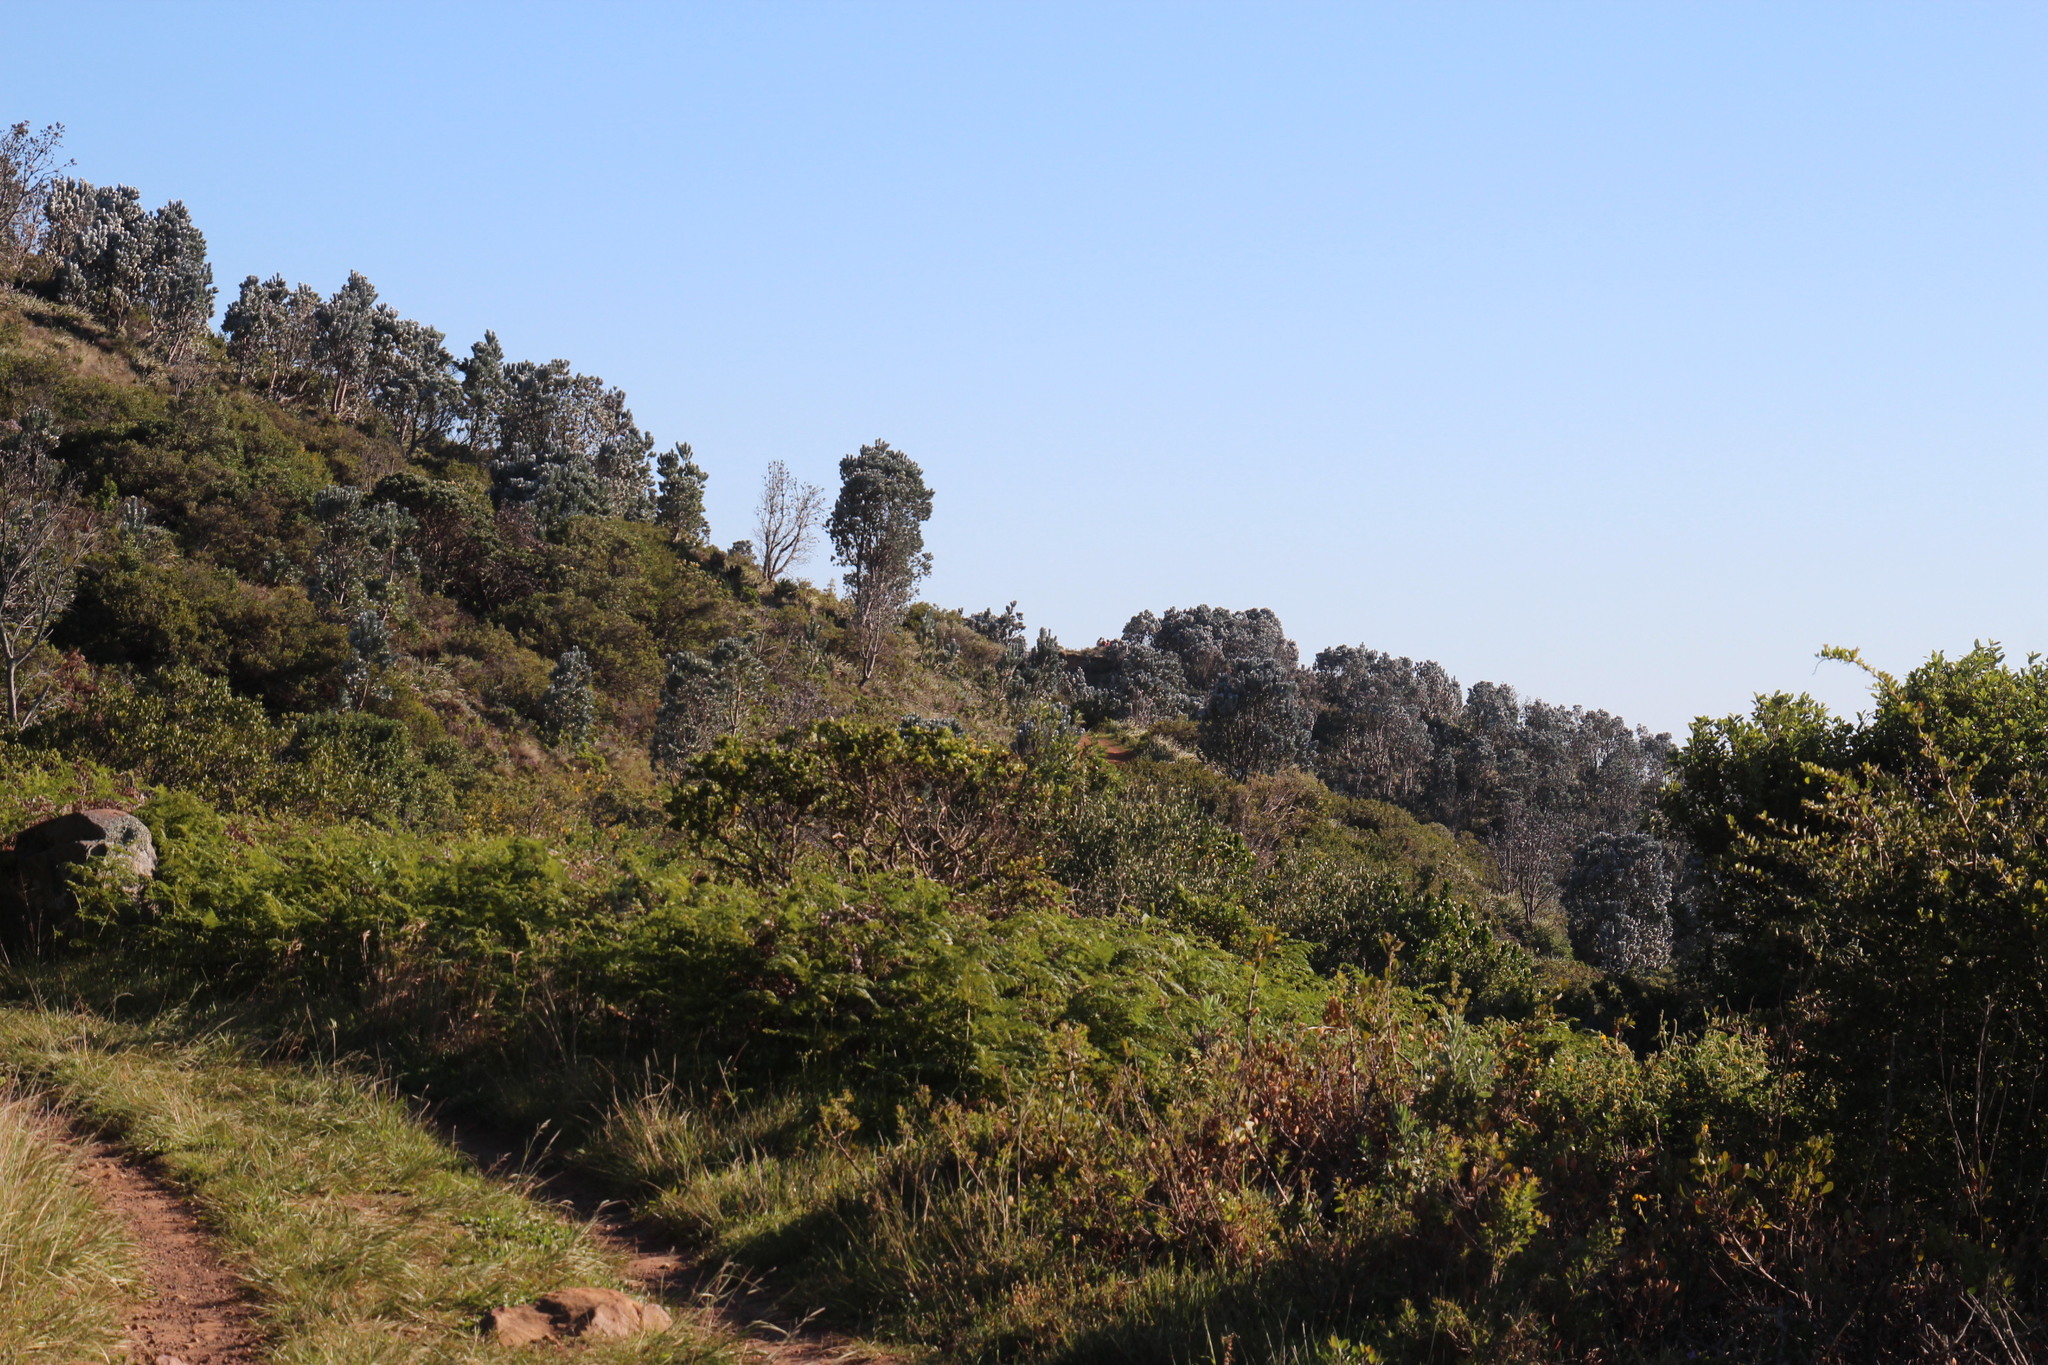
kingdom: Plantae
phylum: Tracheophyta
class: Magnoliopsida
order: Proteales
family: Proteaceae
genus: Leucadendron
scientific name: Leucadendron argenteum
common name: Cape silver tree
